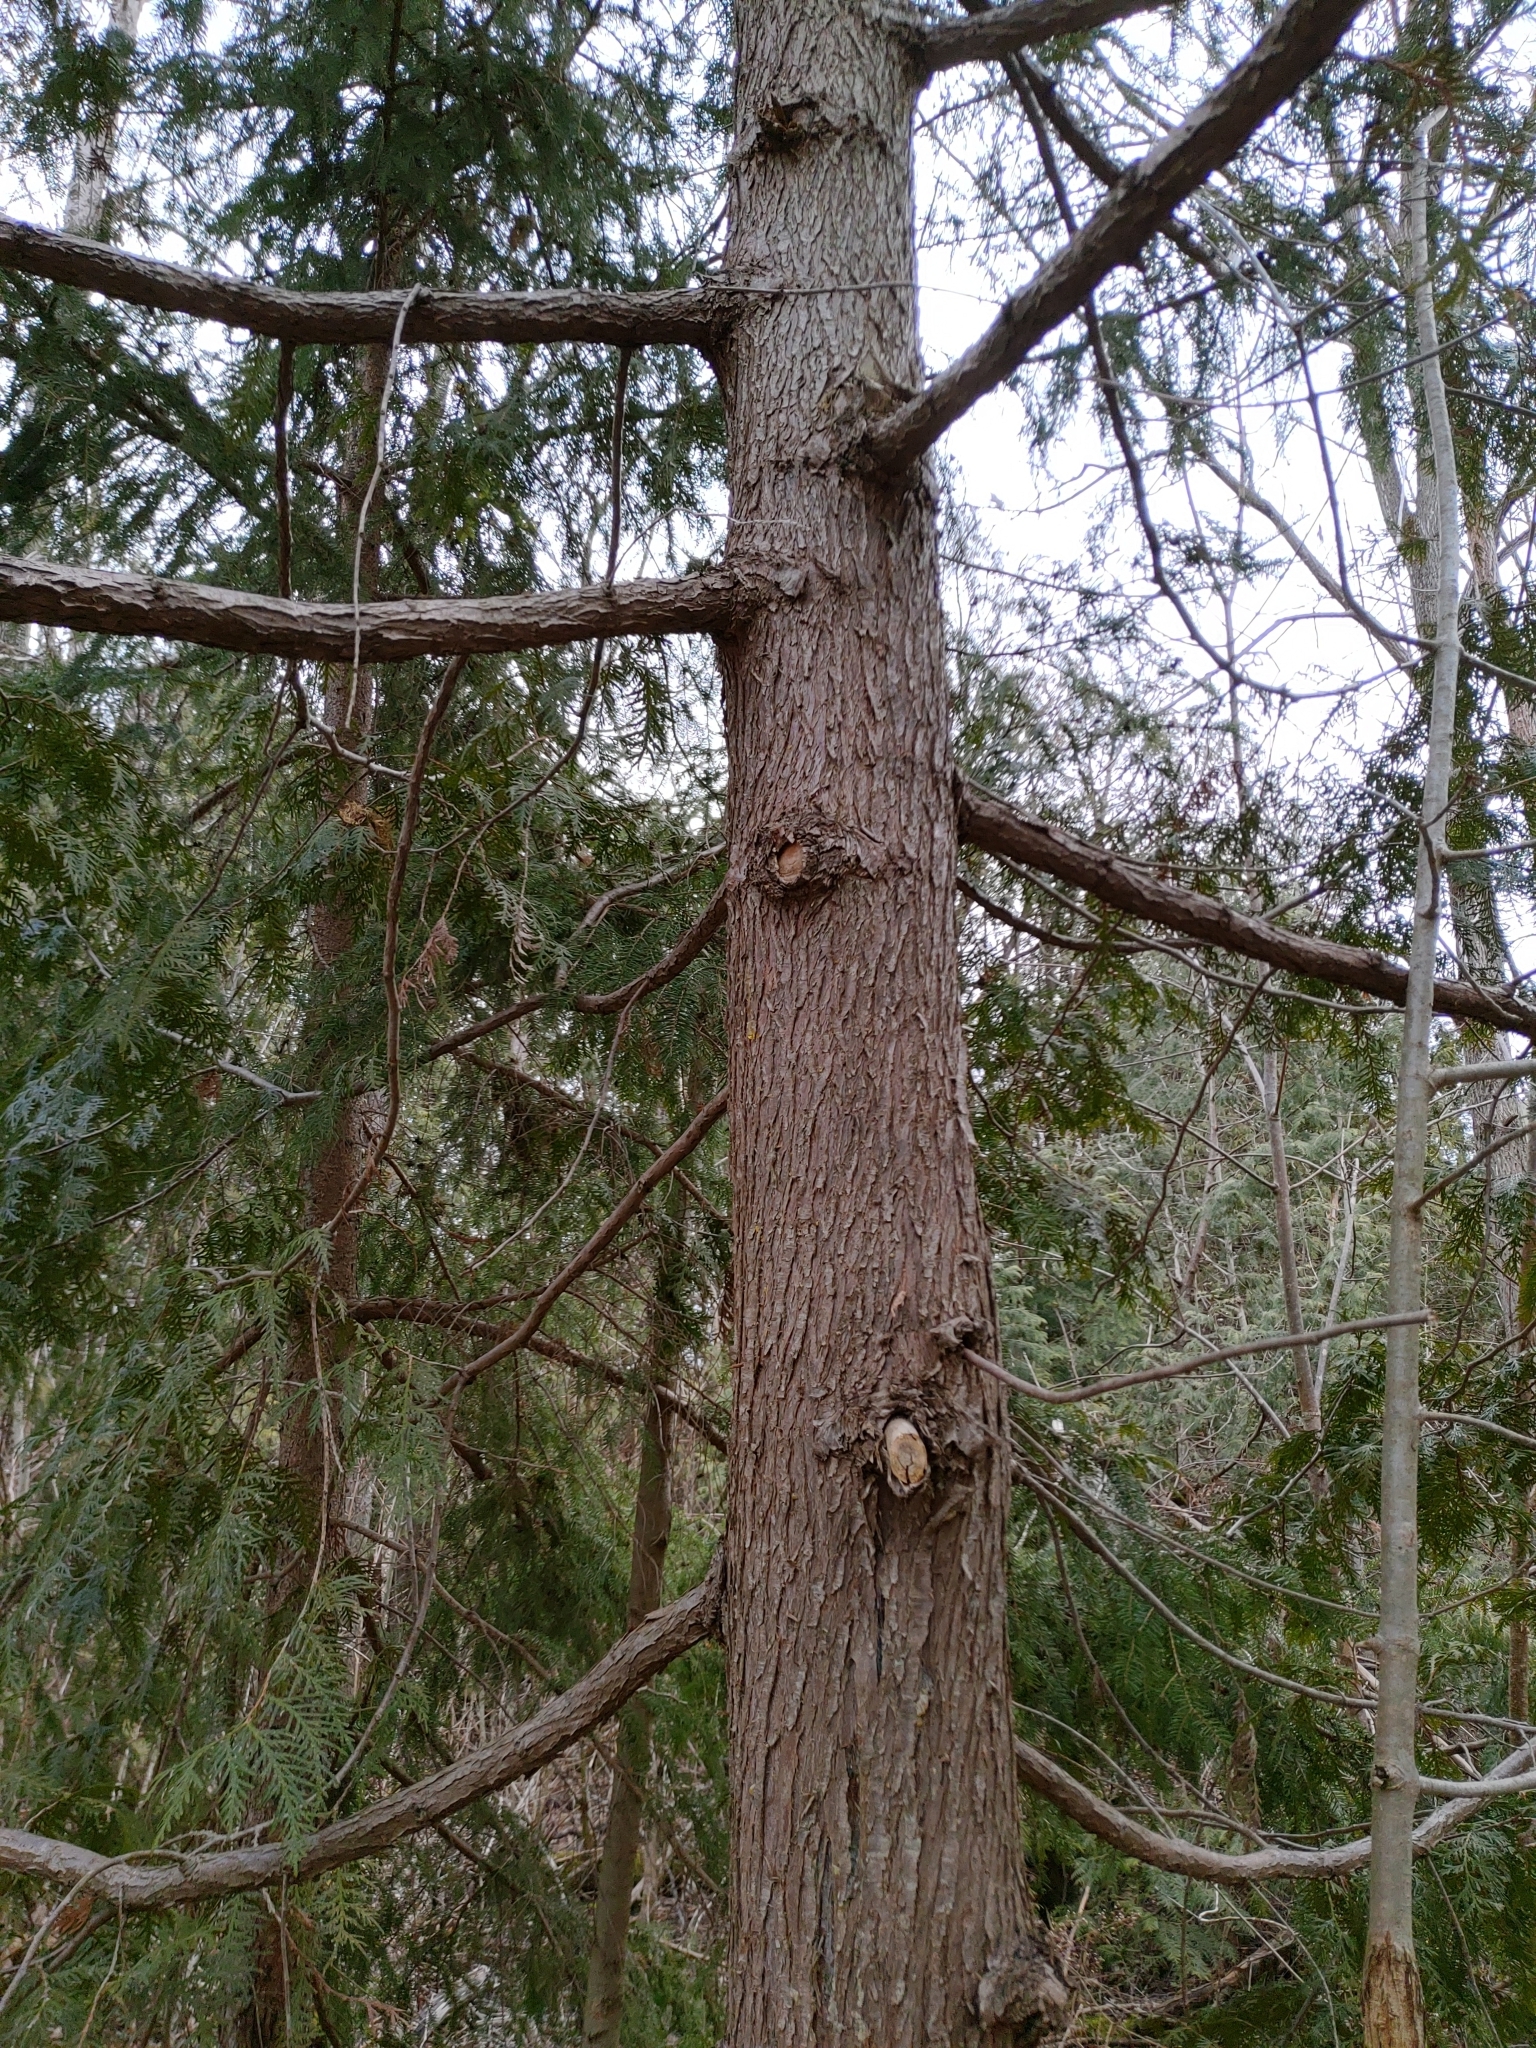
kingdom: Plantae
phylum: Tracheophyta
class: Pinopsida
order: Pinales
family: Cupressaceae
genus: Thuja
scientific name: Thuja occidentalis
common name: Northern white-cedar
